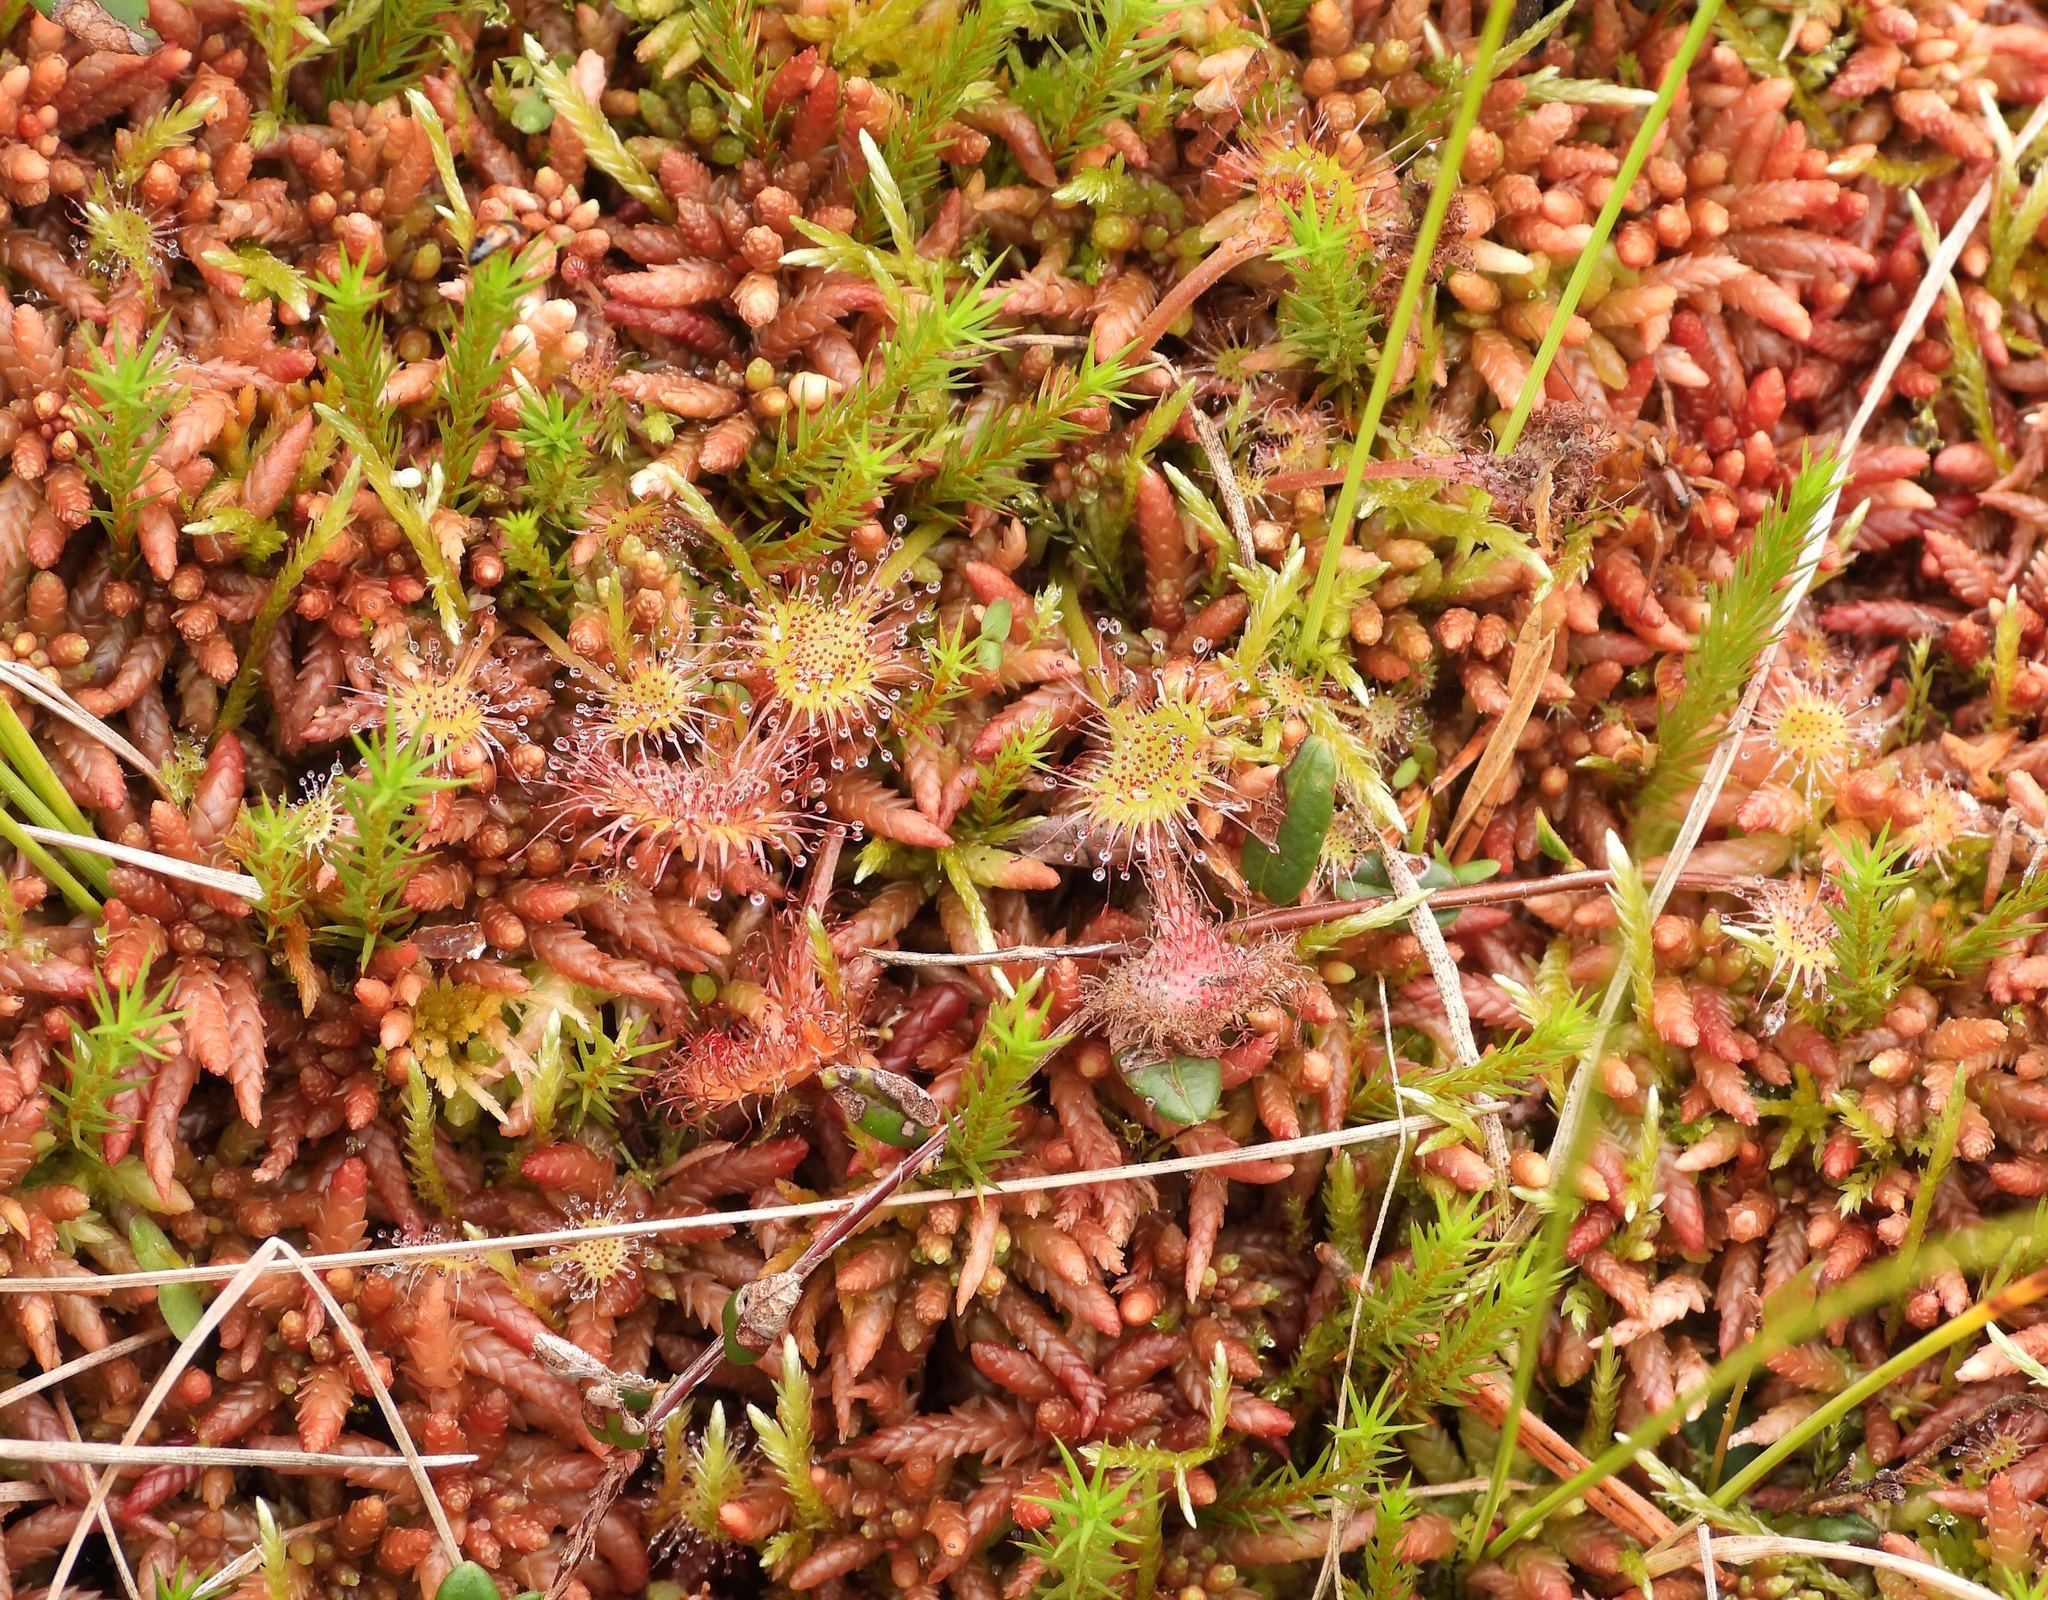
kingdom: Plantae
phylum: Tracheophyta
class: Magnoliopsida
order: Caryophyllales
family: Droseraceae
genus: Drosera
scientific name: Drosera rotundifolia
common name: Round-leaved sundew
